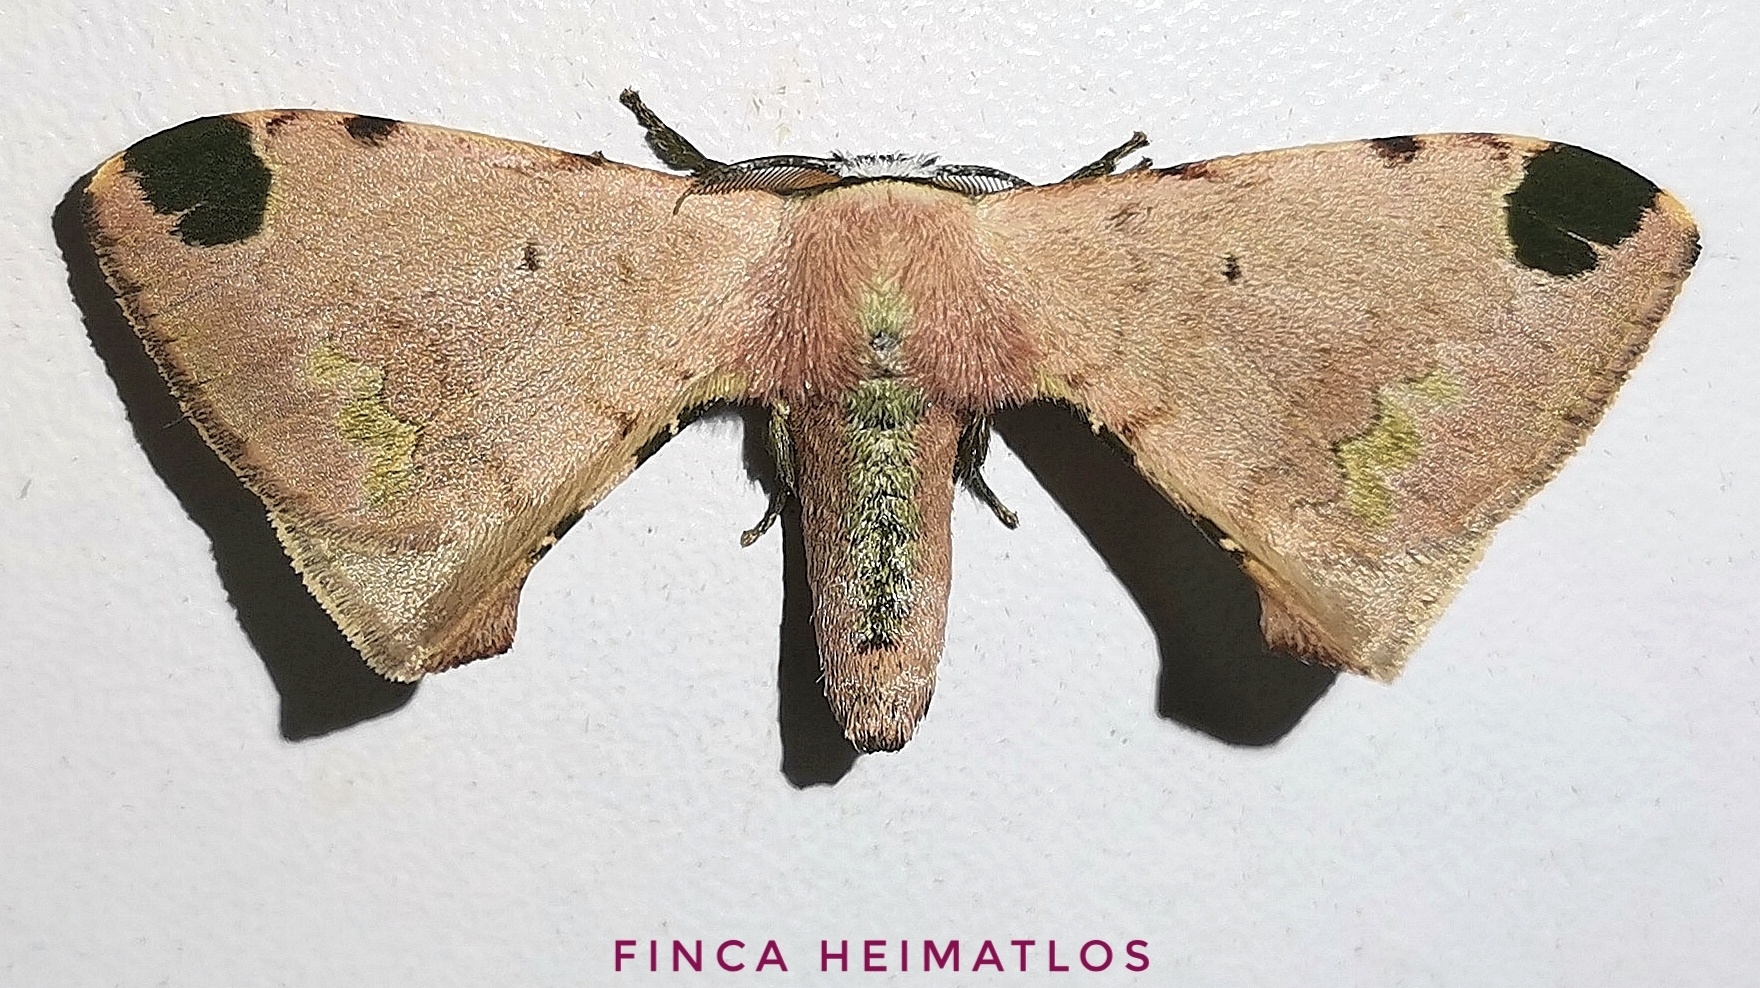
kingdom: Animalia
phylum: Arthropoda
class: Insecta
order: Lepidoptera
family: Bombycidae
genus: Anticla
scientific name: Anticla antica
